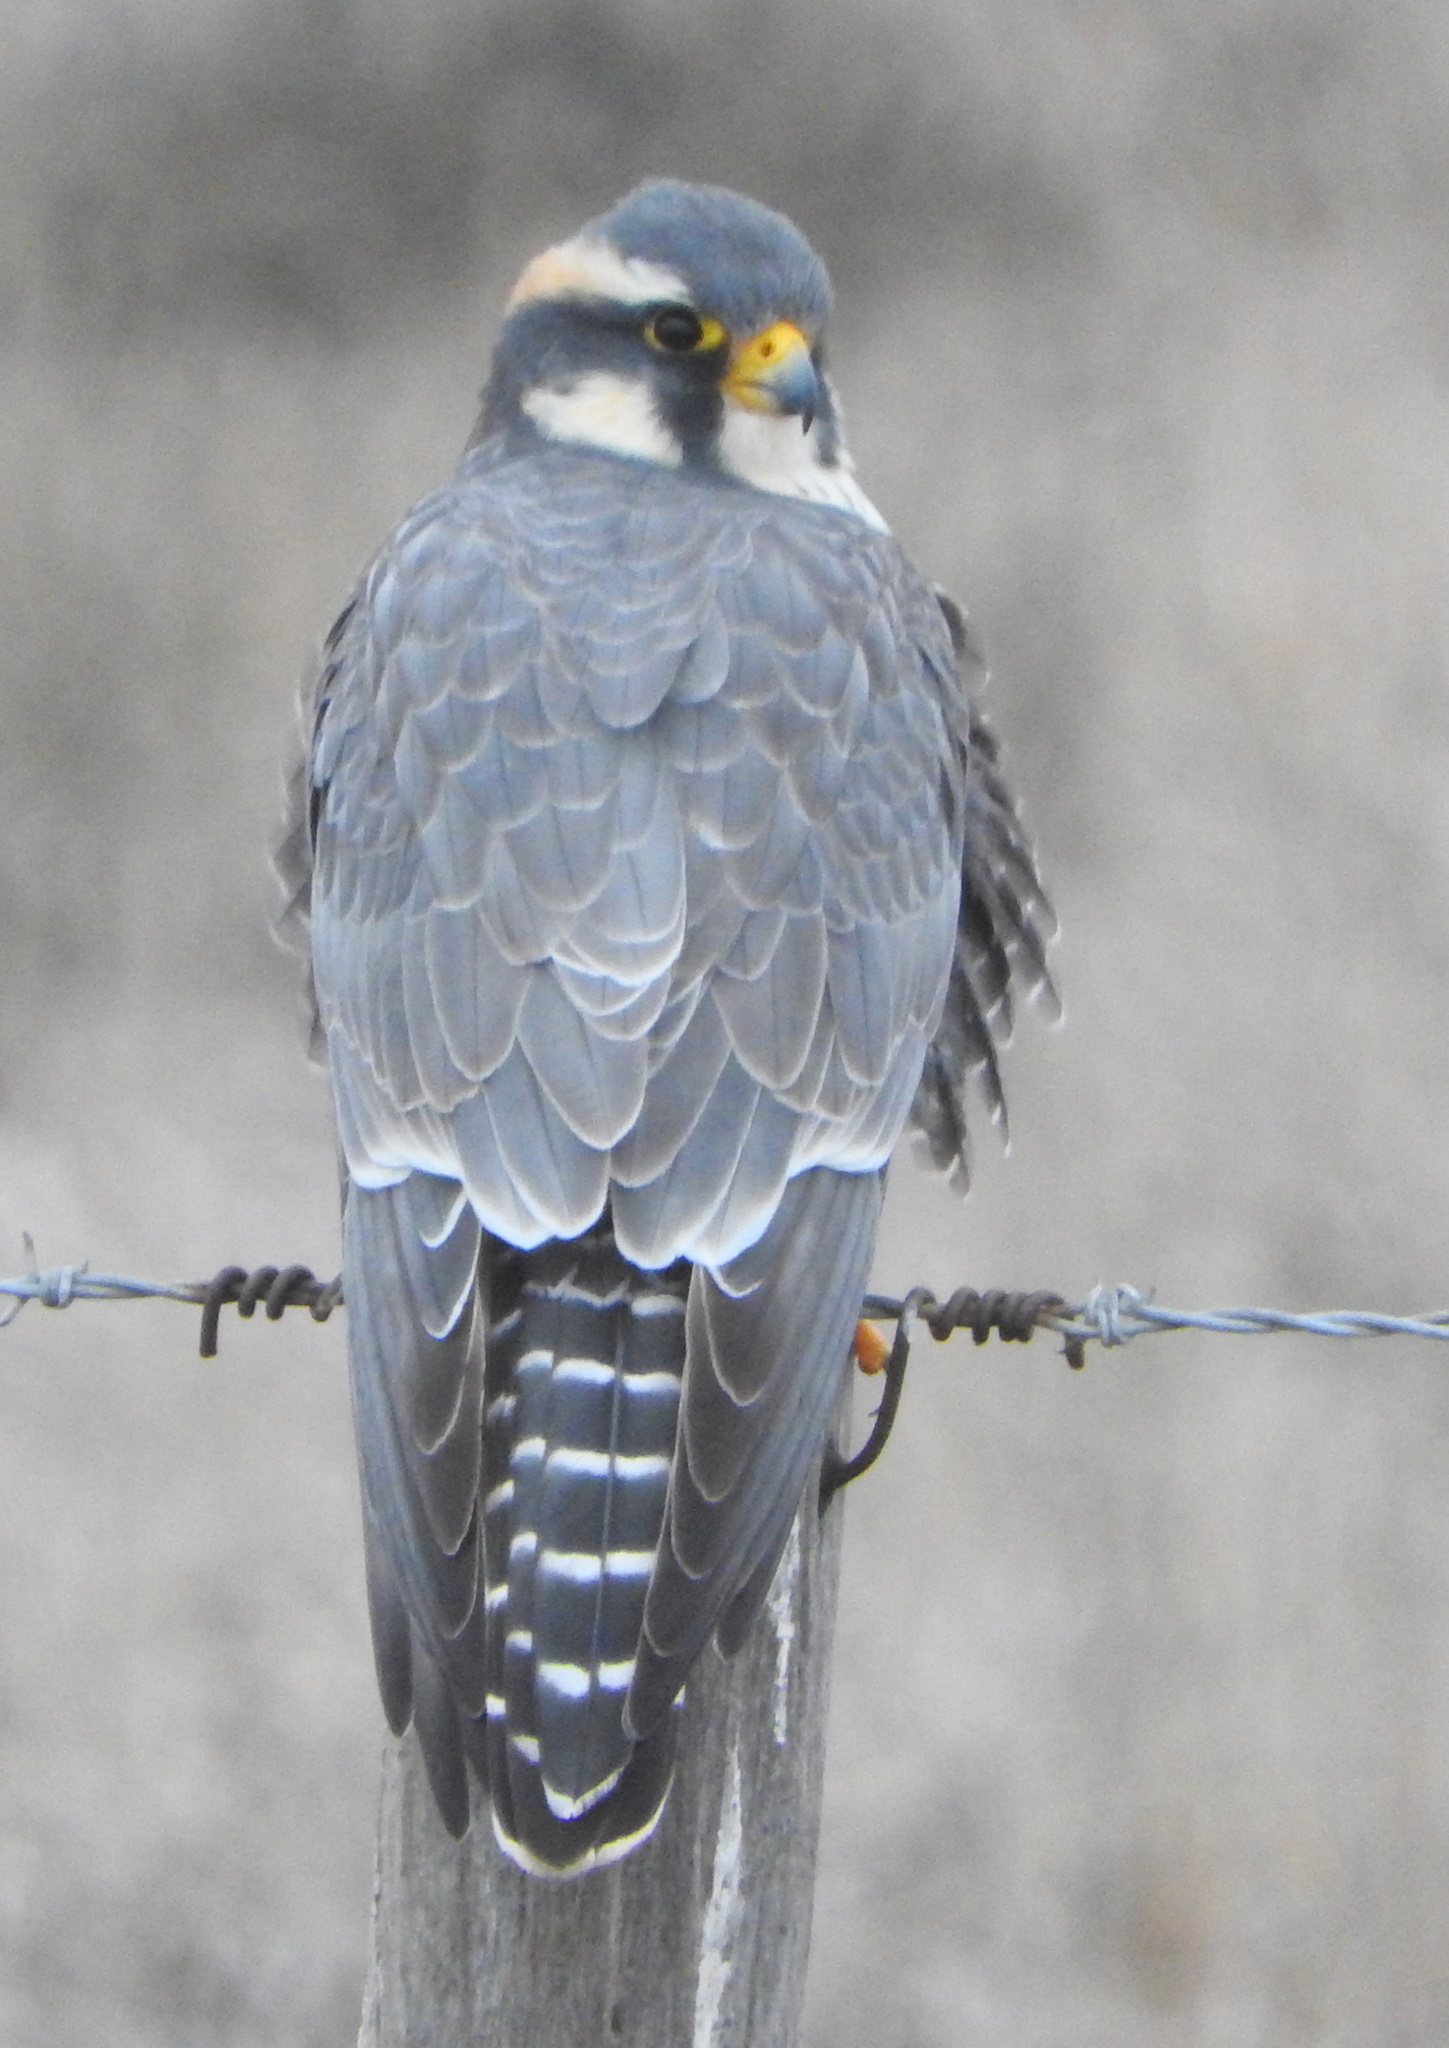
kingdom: Animalia
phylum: Chordata
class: Aves
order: Falconiformes
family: Falconidae
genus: Falco
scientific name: Falco femoralis
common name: Aplomado falcon
